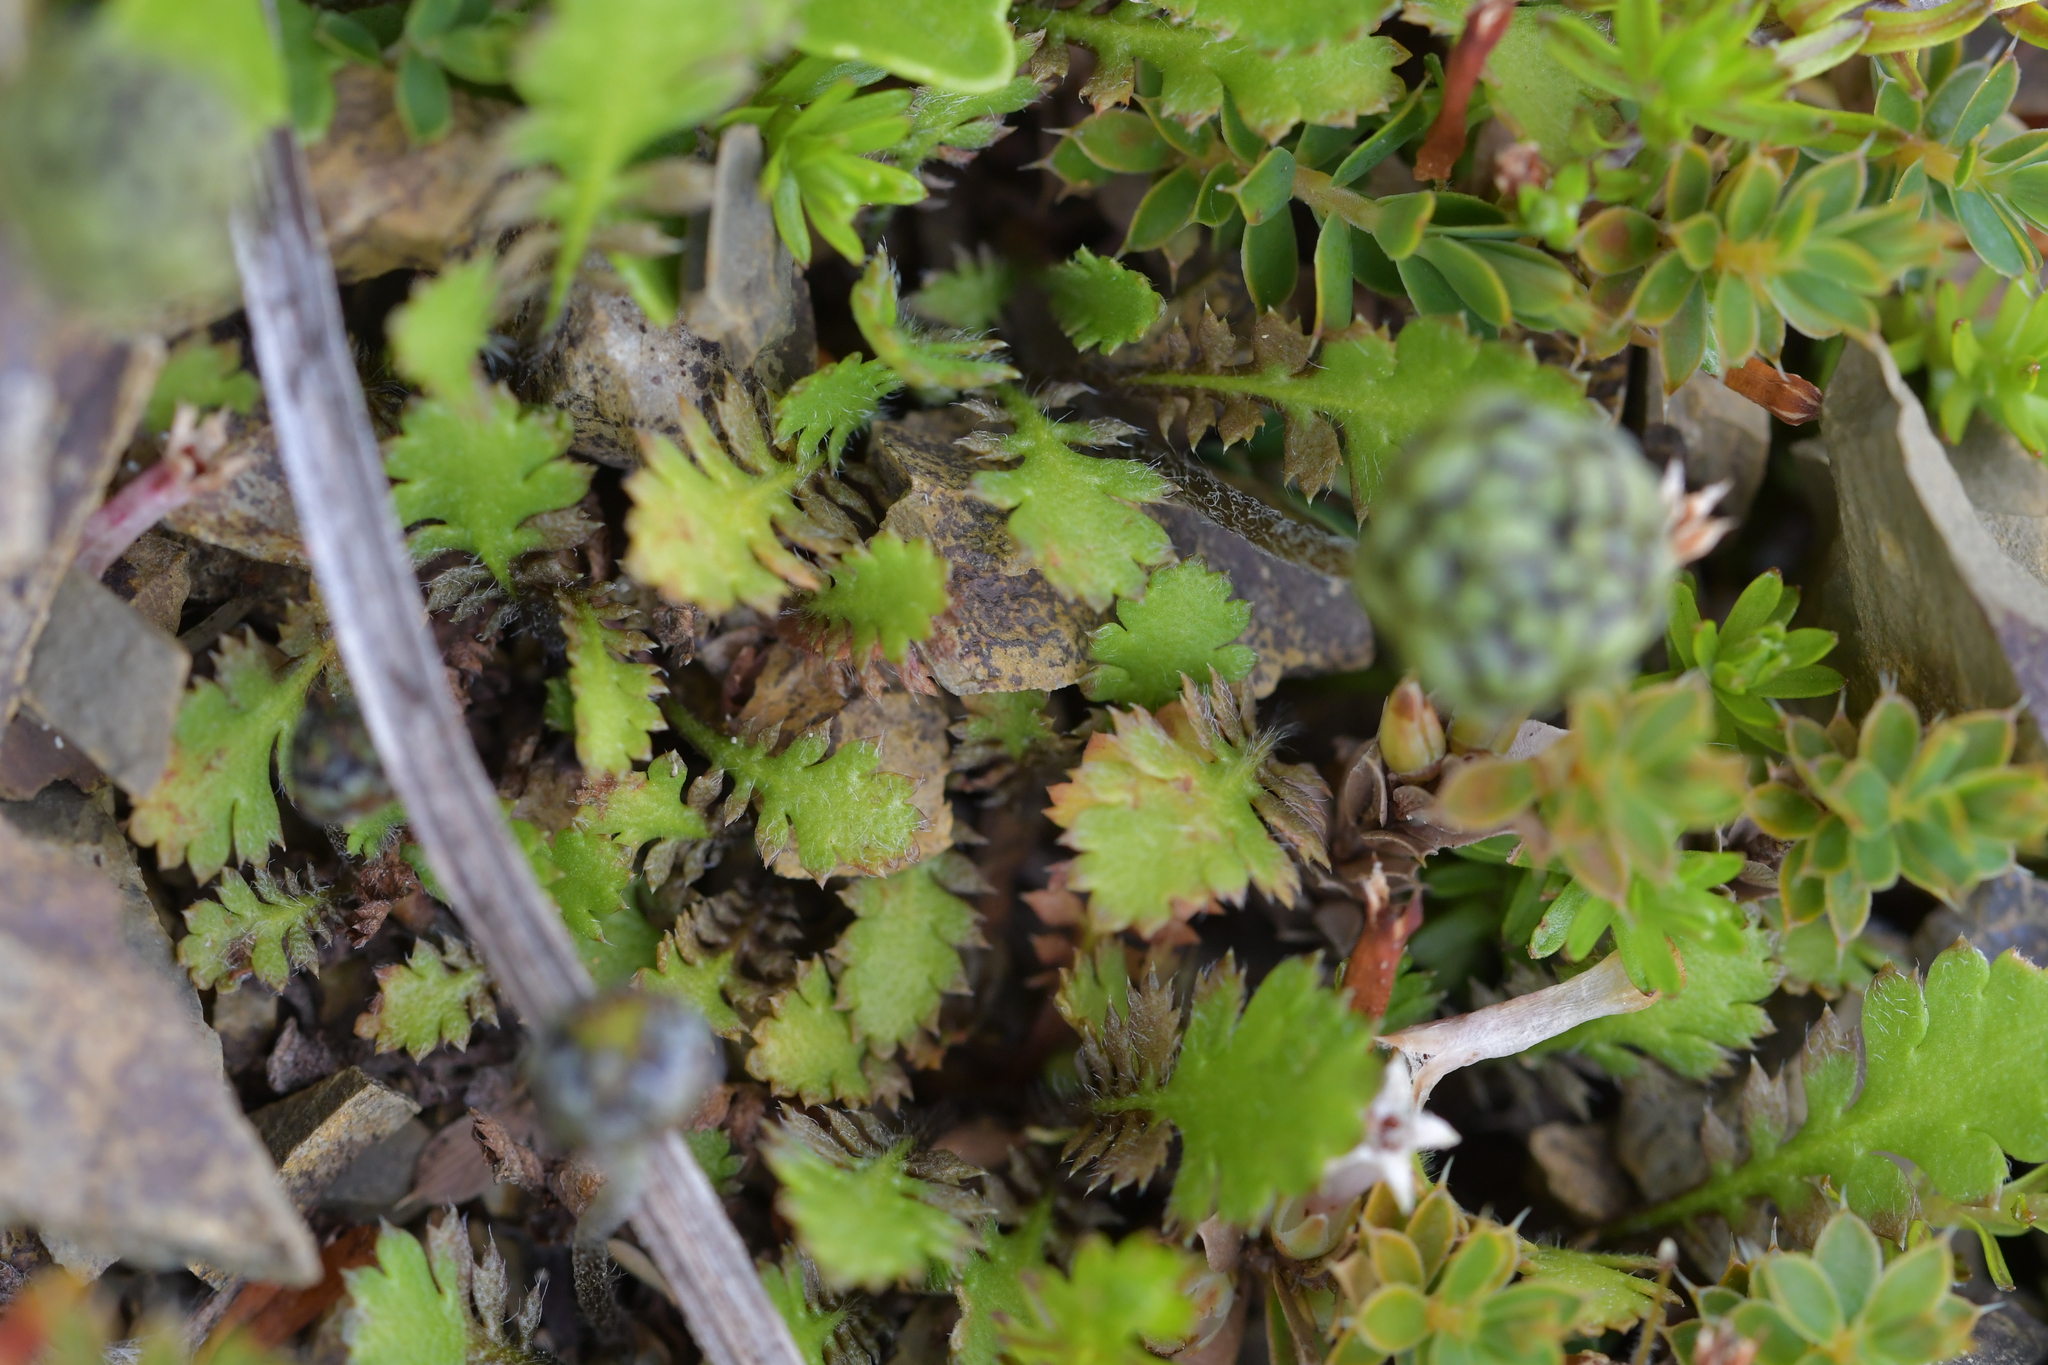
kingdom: Plantae
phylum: Tracheophyta
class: Magnoliopsida
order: Asterales
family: Asteraceae
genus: Leptinella
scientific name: Leptinella squalida
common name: New zealand brass-buttons
